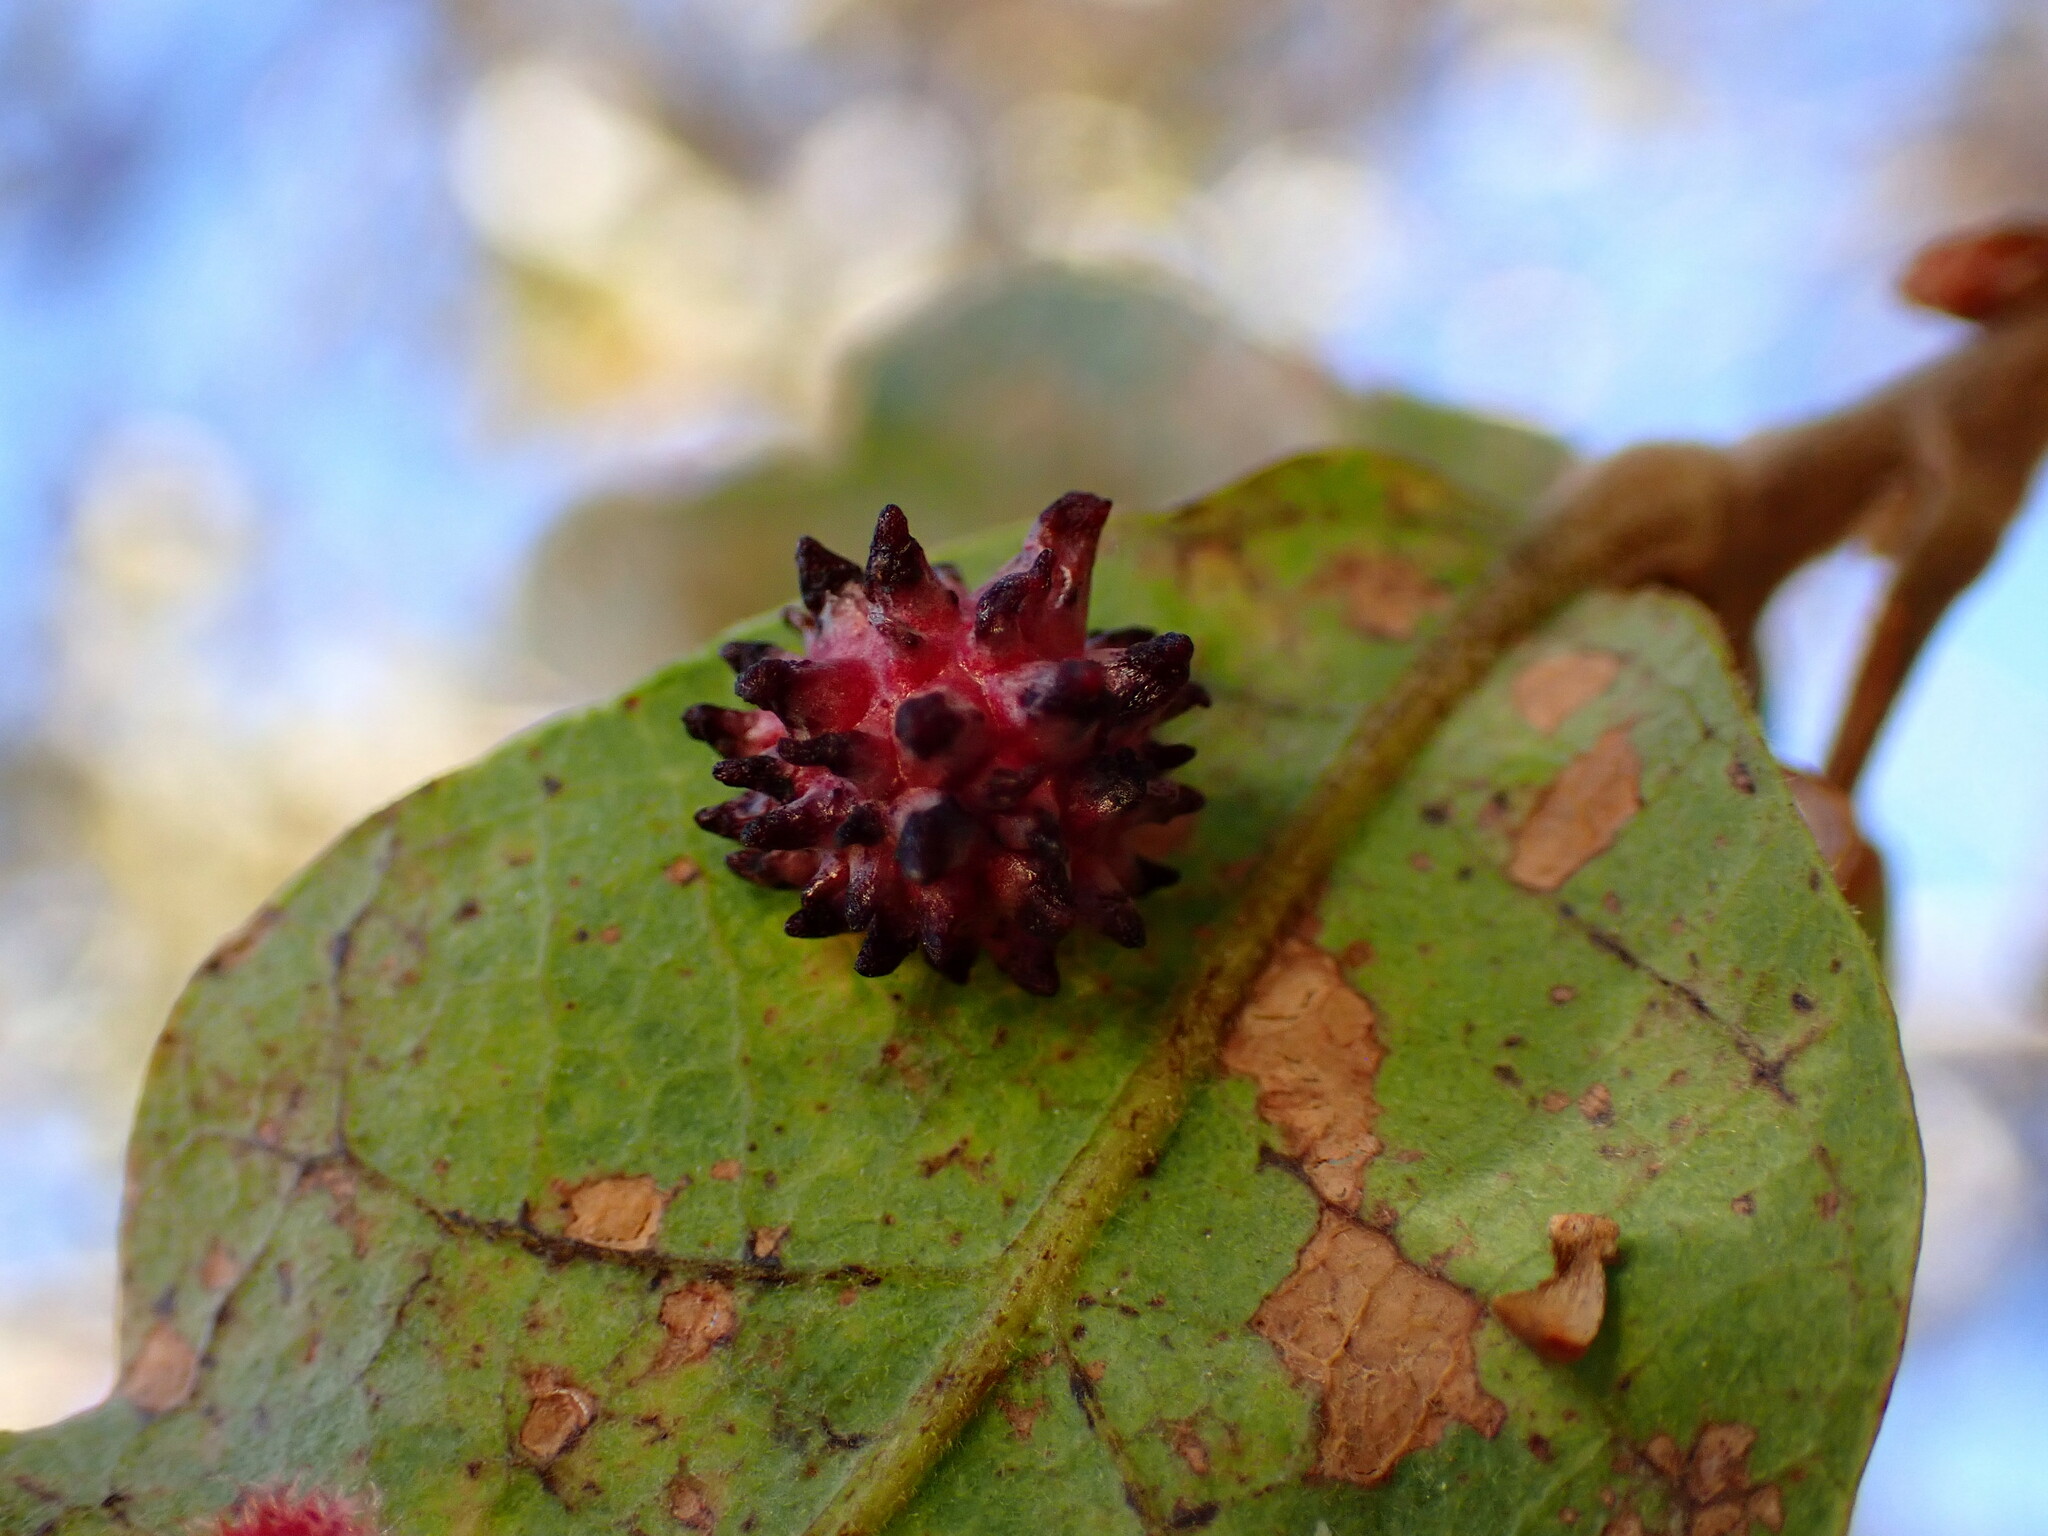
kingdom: Animalia
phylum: Arthropoda
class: Insecta
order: Hymenoptera
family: Cynipidae
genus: Cynips
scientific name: Cynips
